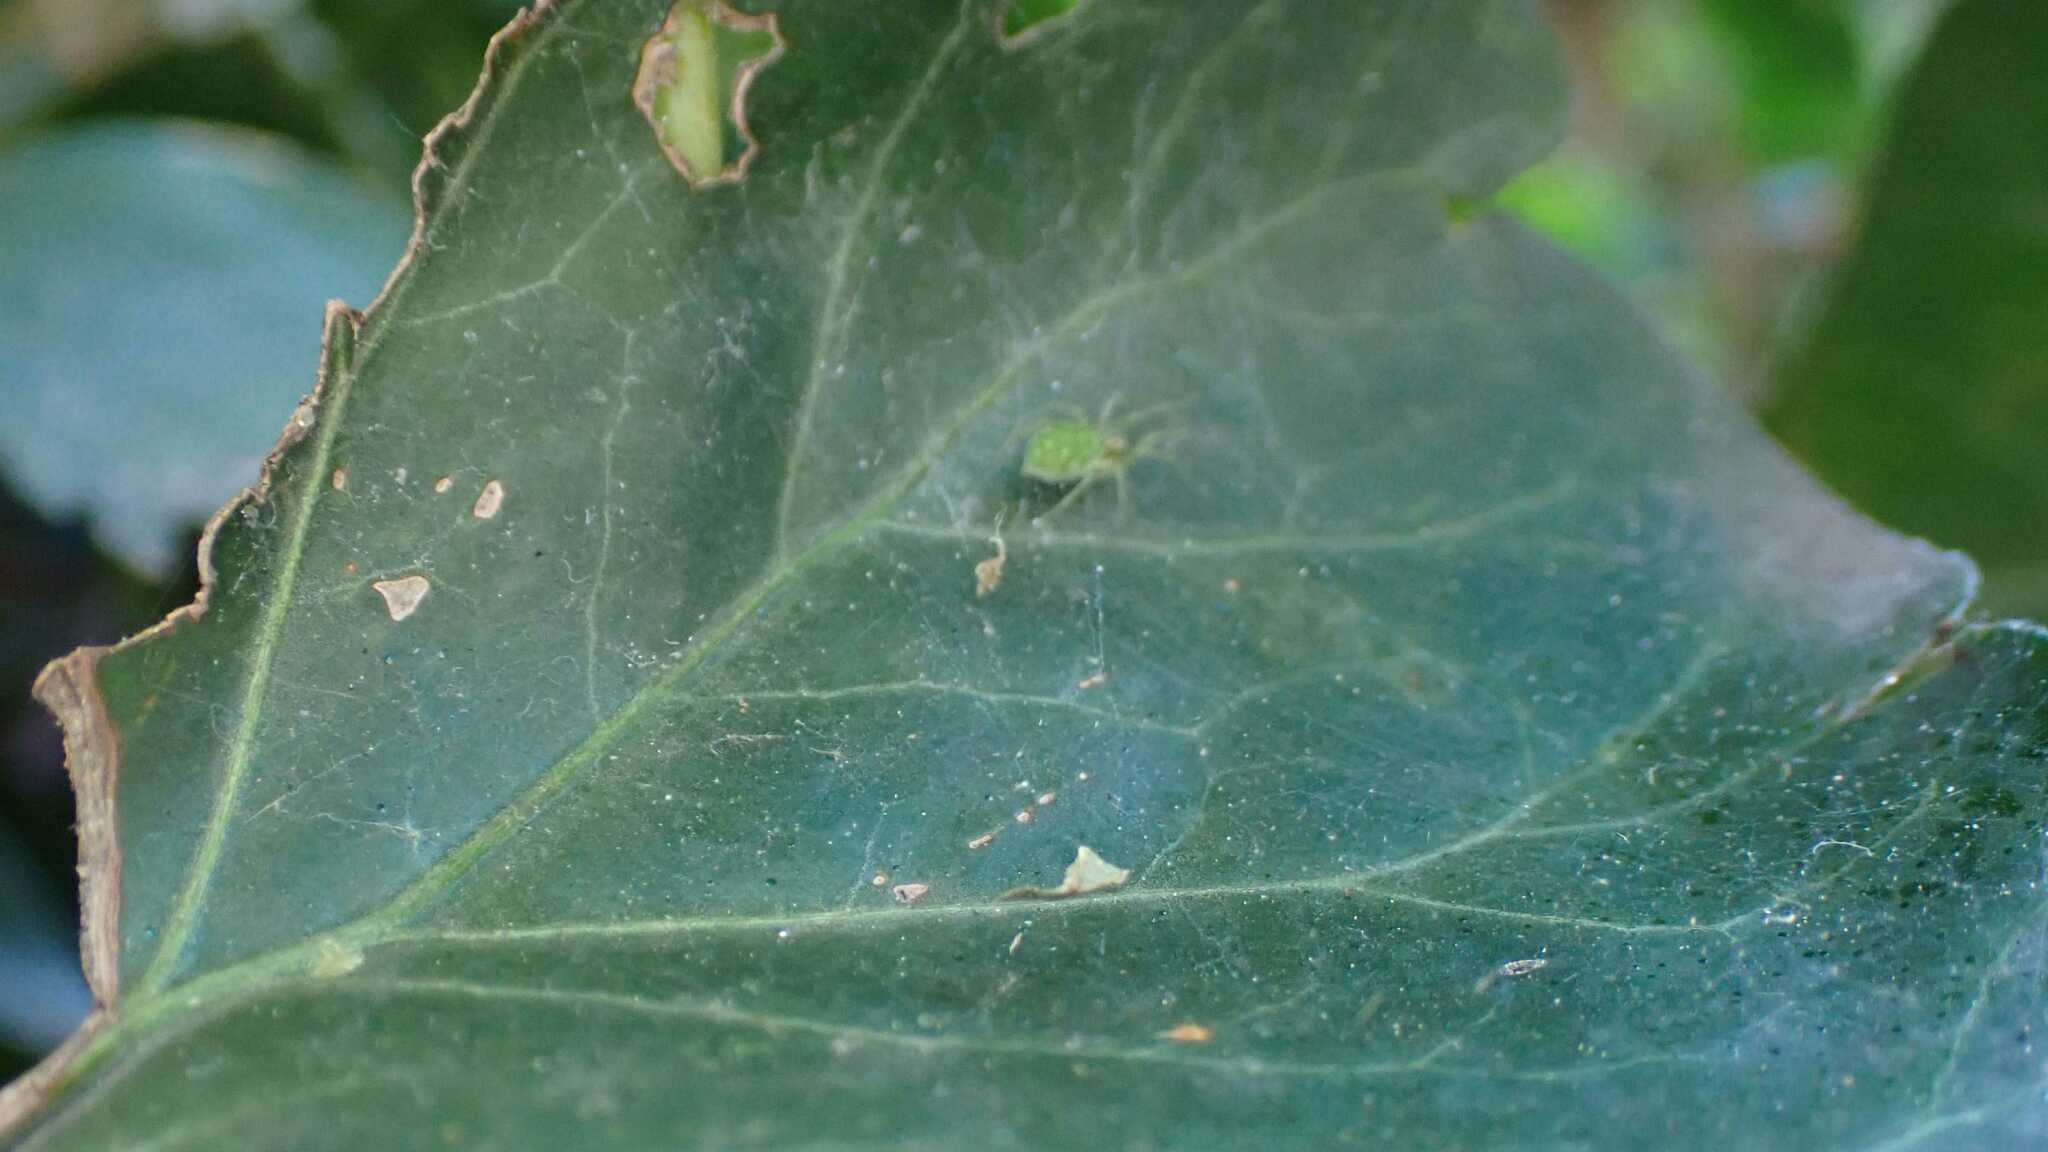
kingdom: Animalia
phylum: Arthropoda
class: Arachnida
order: Araneae
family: Dictynidae
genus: Nigma
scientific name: Nigma walckenaeri
